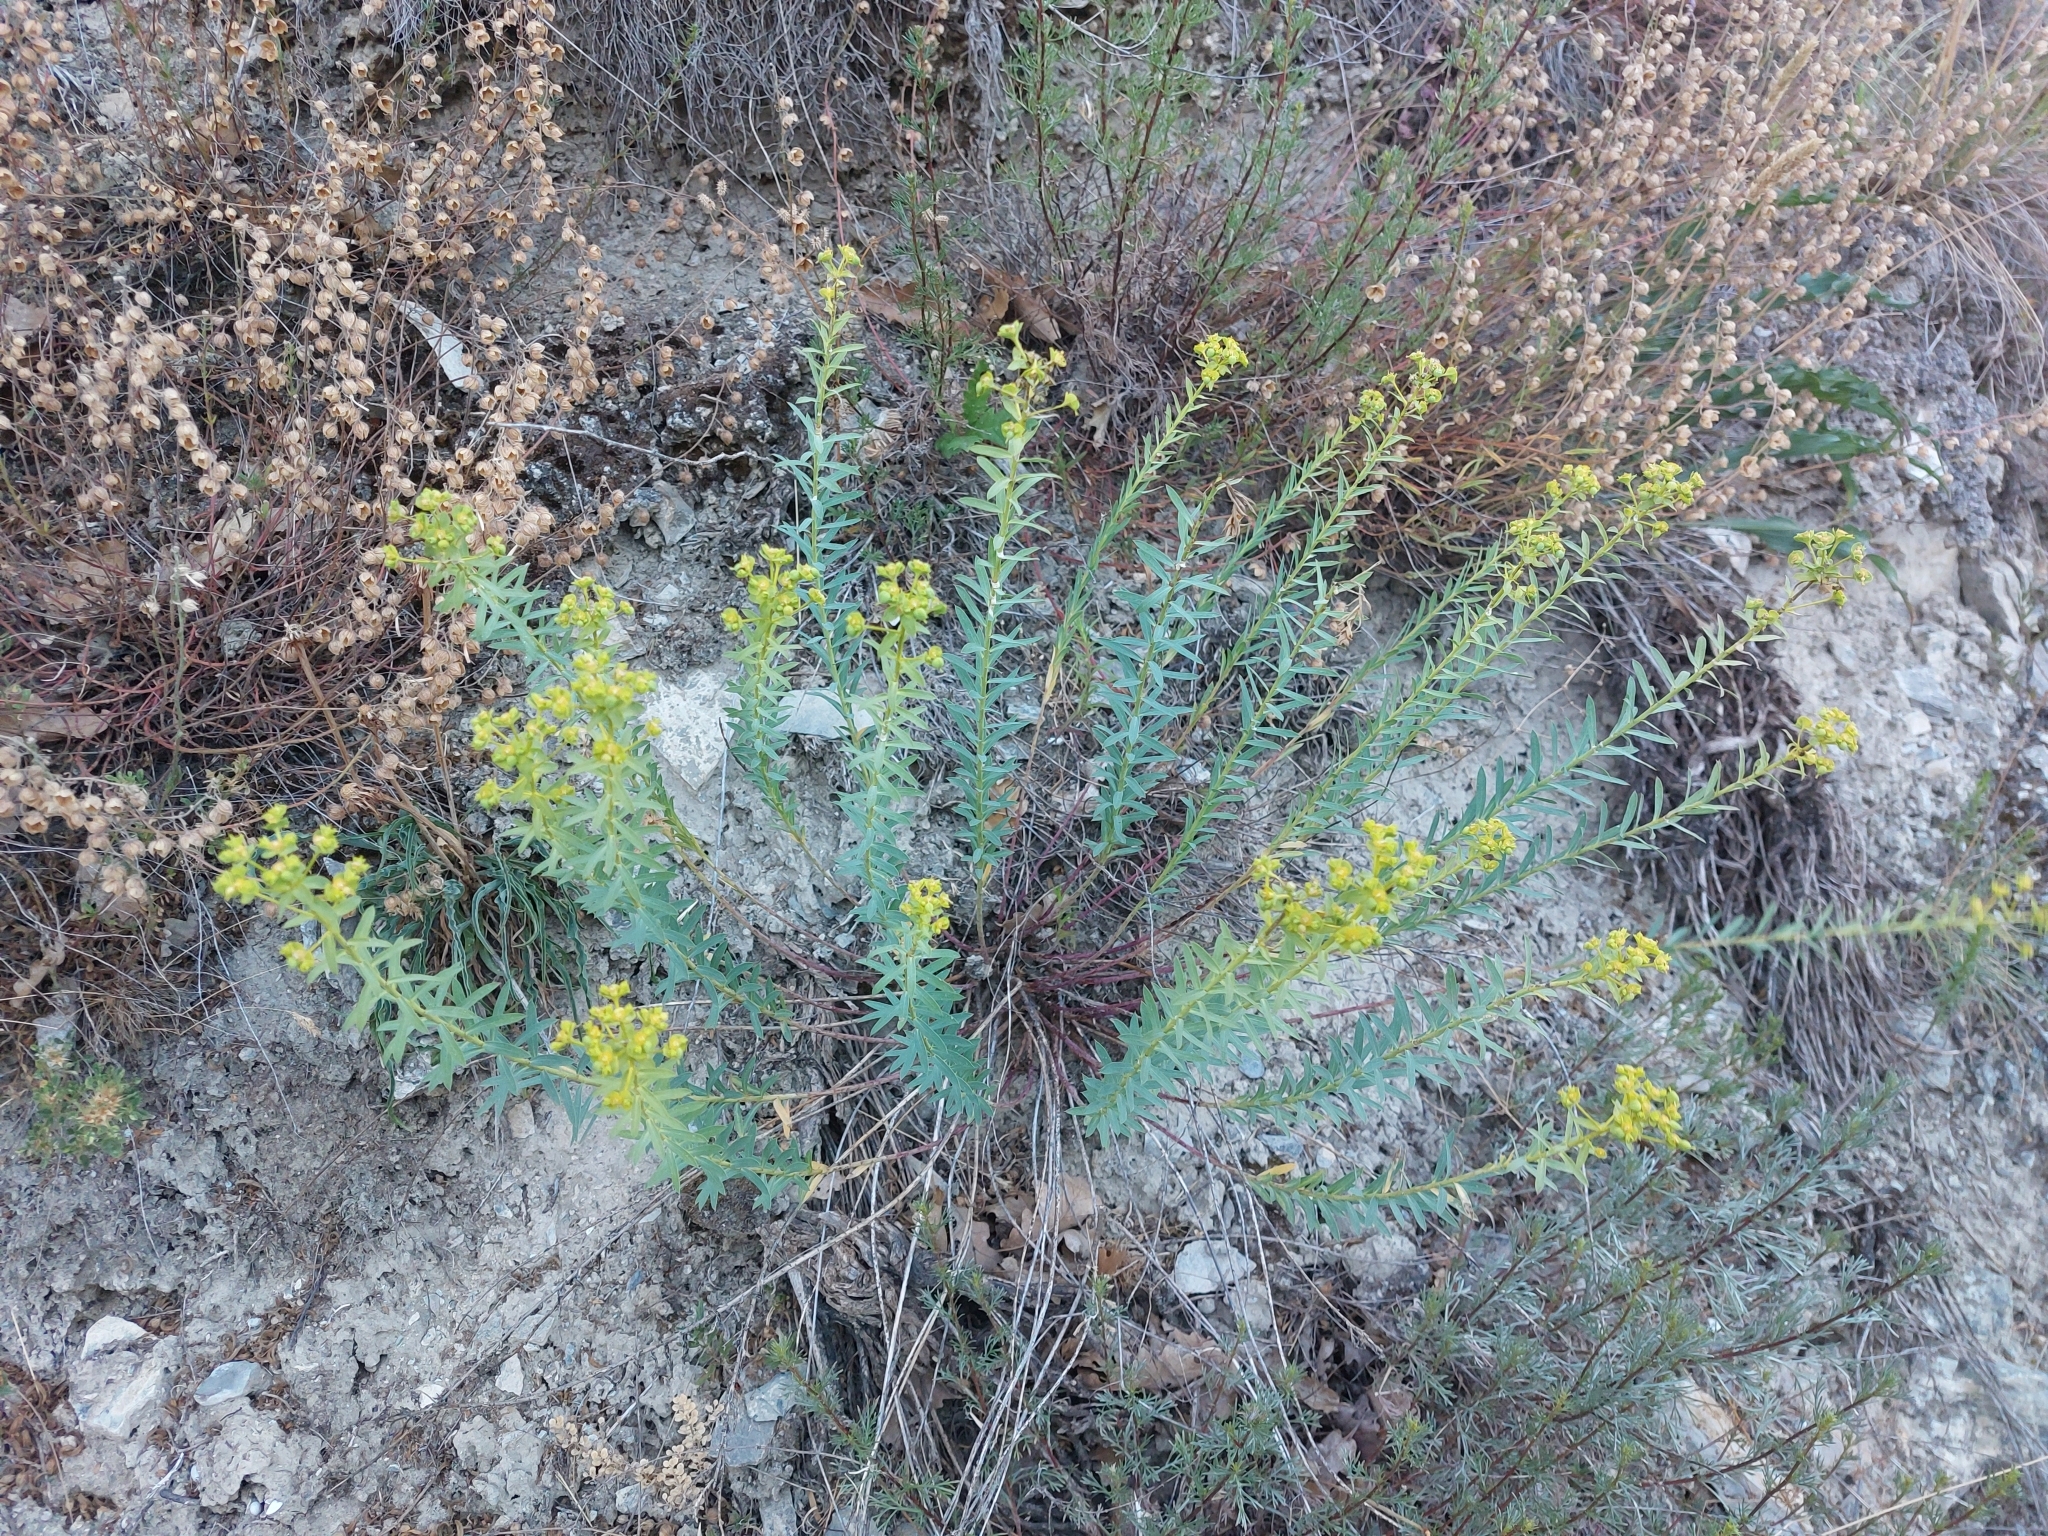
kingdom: Plantae
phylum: Tracheophyta
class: Magnoliopsida
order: Malpighiales
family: Euphorbiaceae
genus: Euphorbia
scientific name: Euphorbia seguieriana
